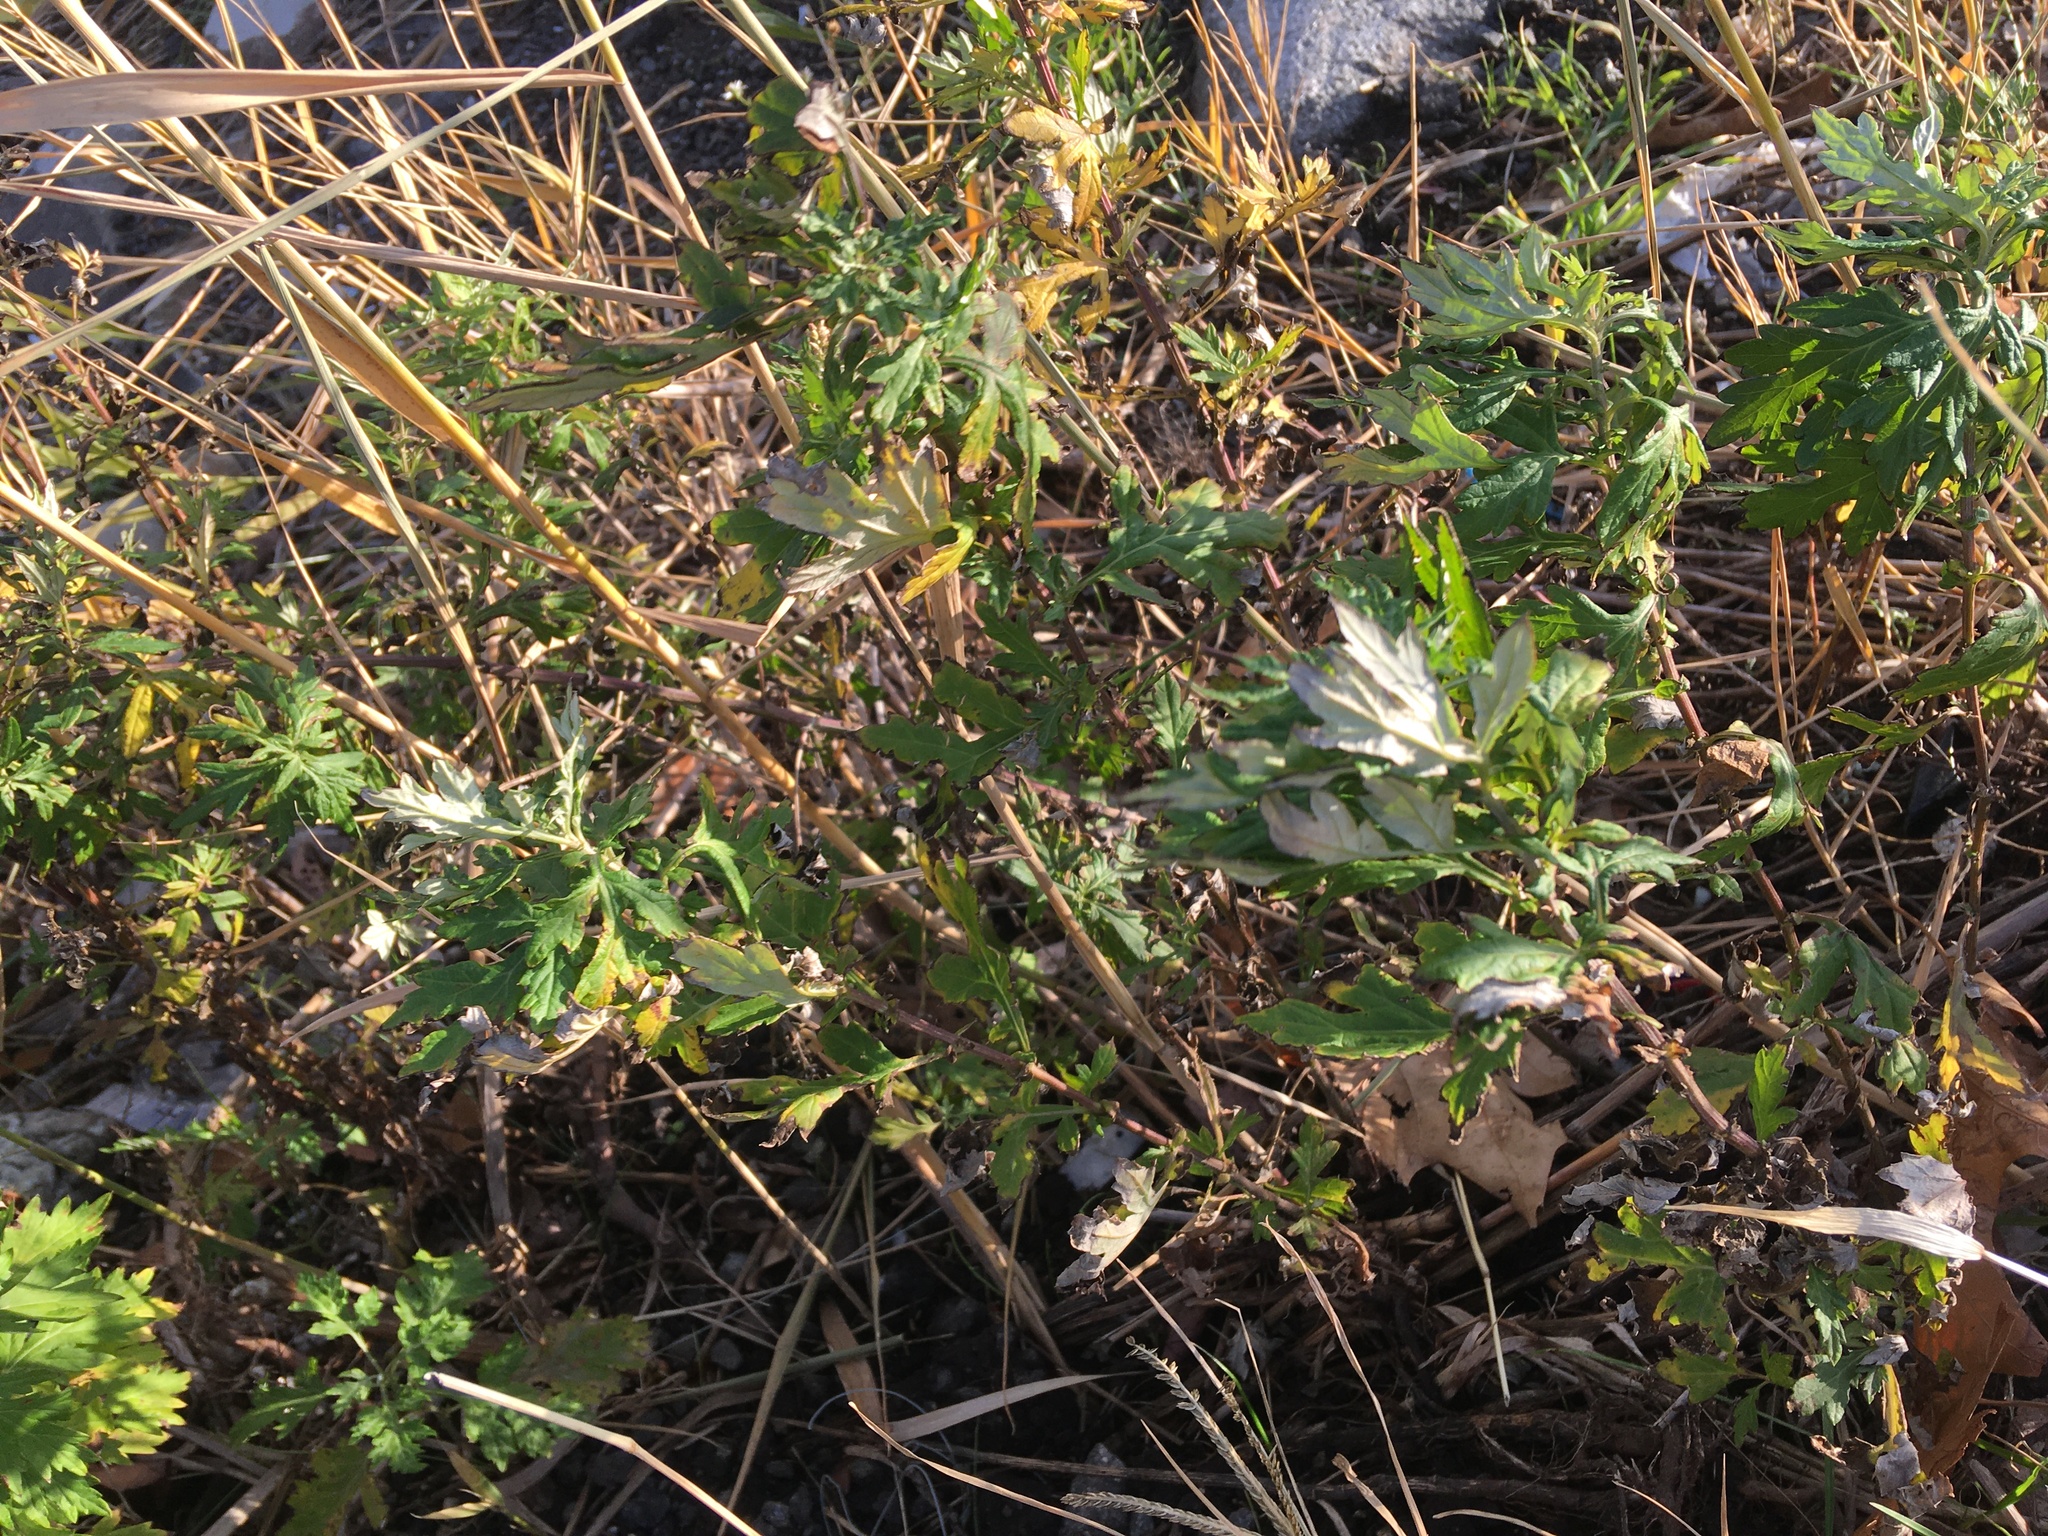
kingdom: Plantae
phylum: Tracheophyta
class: Magnoliopsida
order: Asterales
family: Asteraceae
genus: Artemisia
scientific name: Artemisia vulgaris
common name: Mugwort
